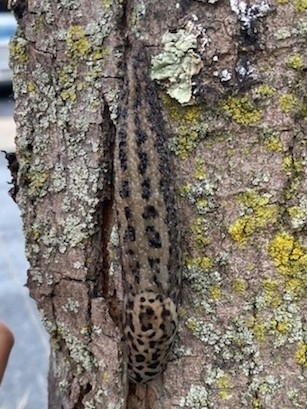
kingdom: Animalia
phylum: Mollusca
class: Gastropoda
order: Stylommatophora
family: Limacidae
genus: Limax
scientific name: Limax maximus
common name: Great grey slug
